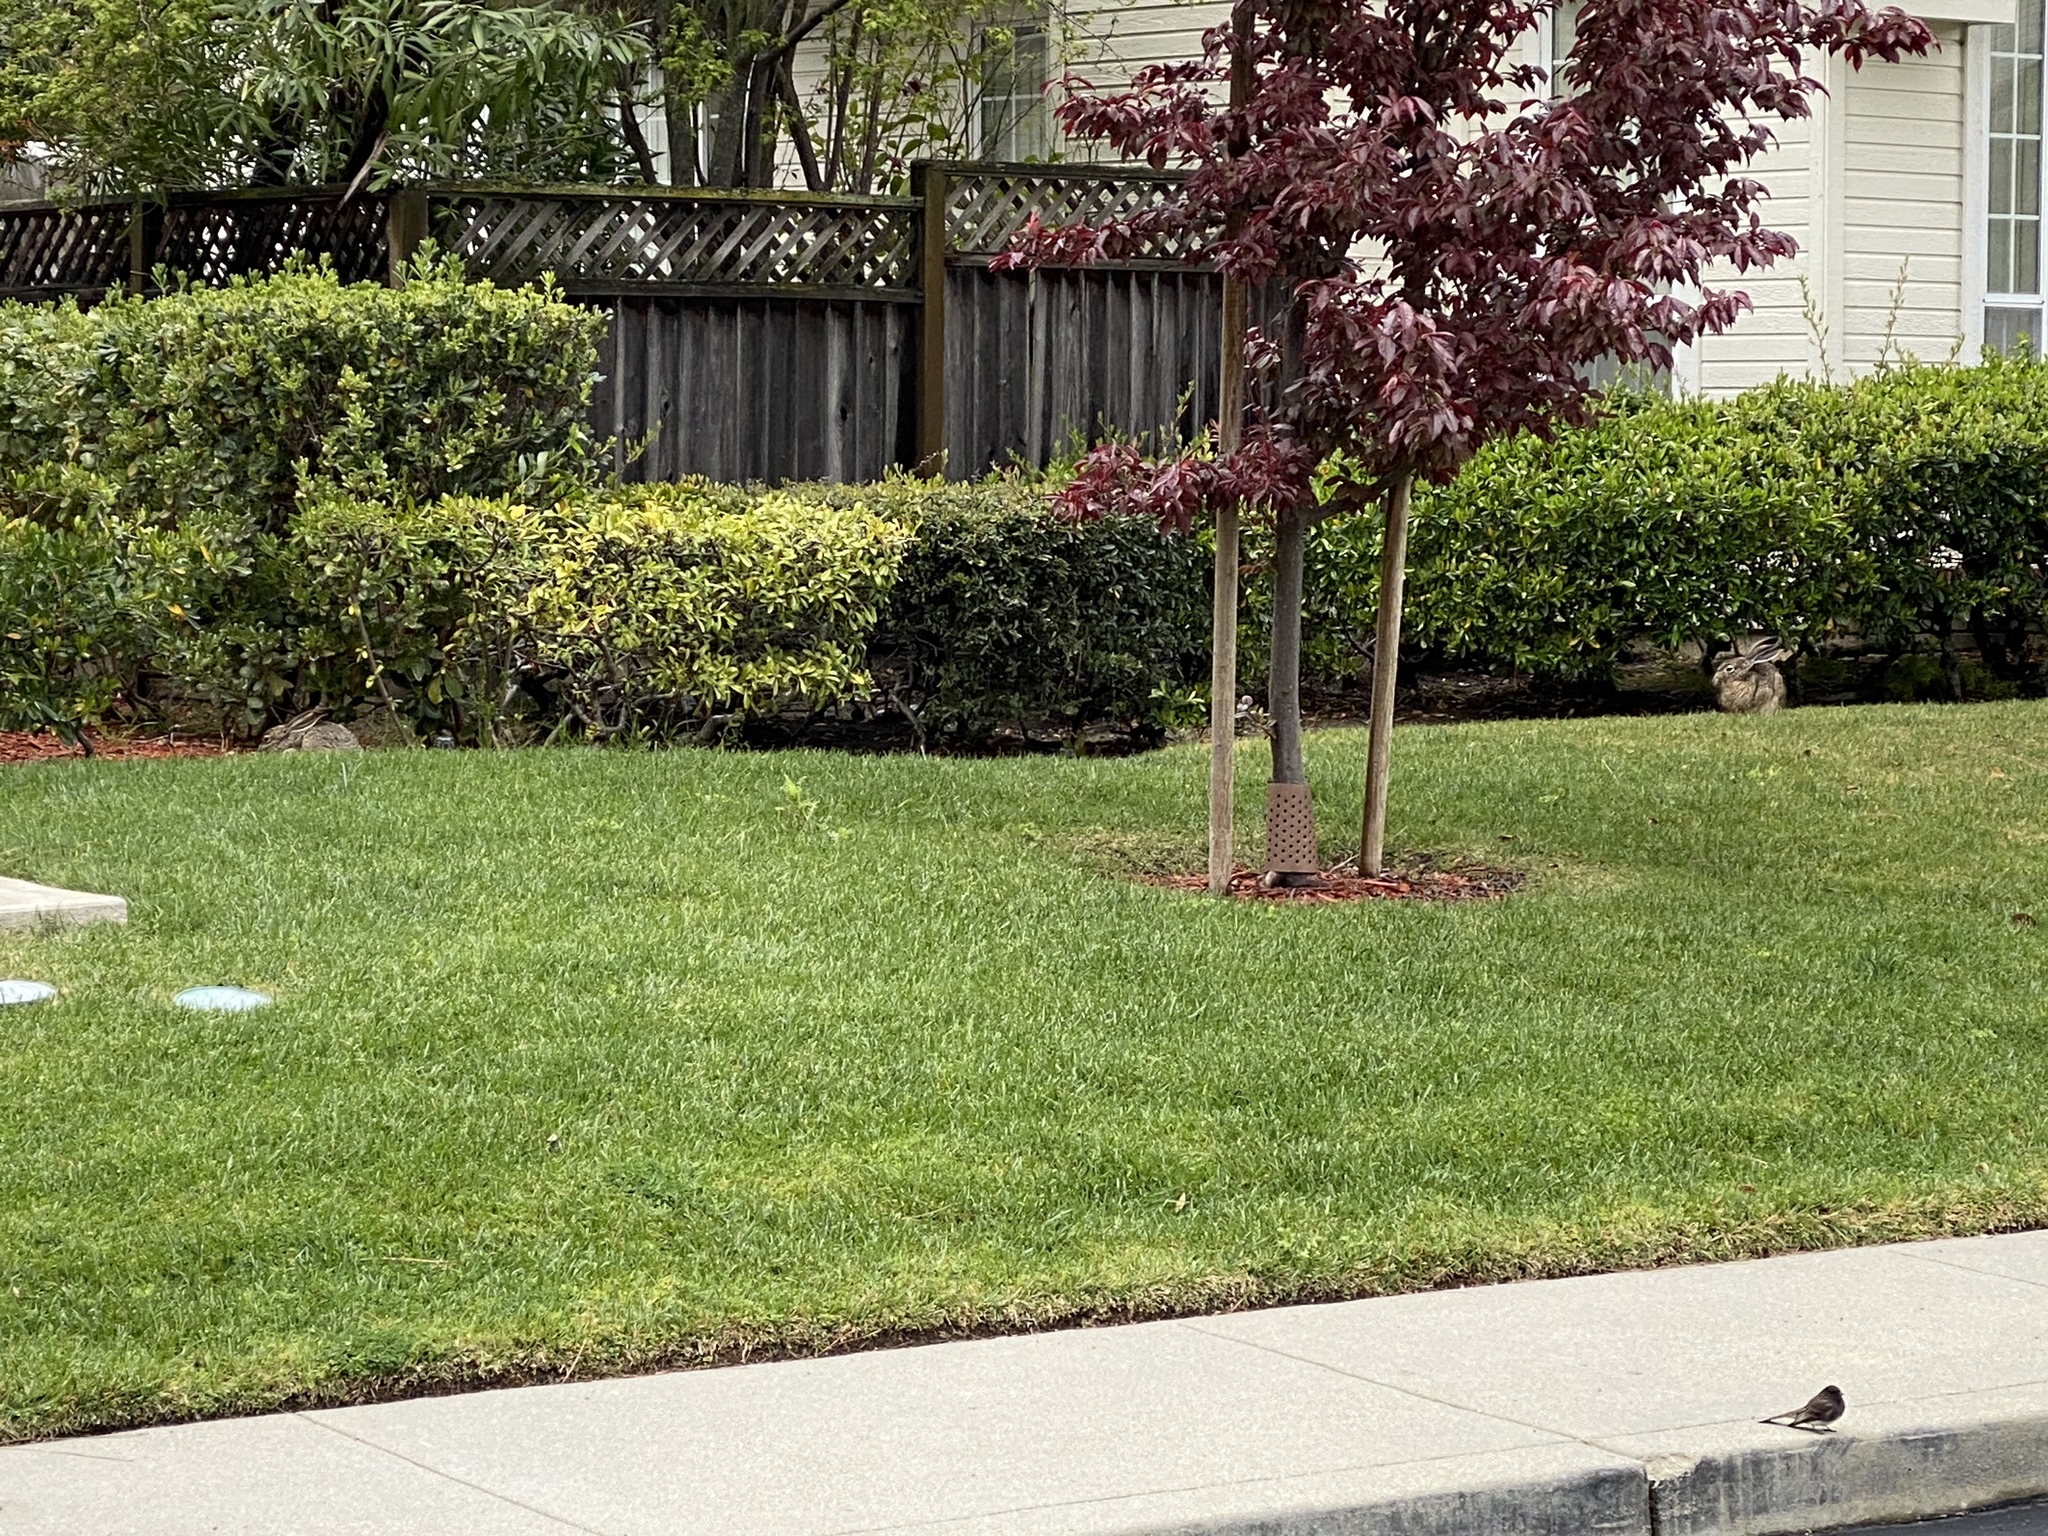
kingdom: Animalia
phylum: Chordata
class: Mammalia
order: Lagomorpha
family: Leporidae
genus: Lepus
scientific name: Lepus californicus
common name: Black-tailed jackrabbit
